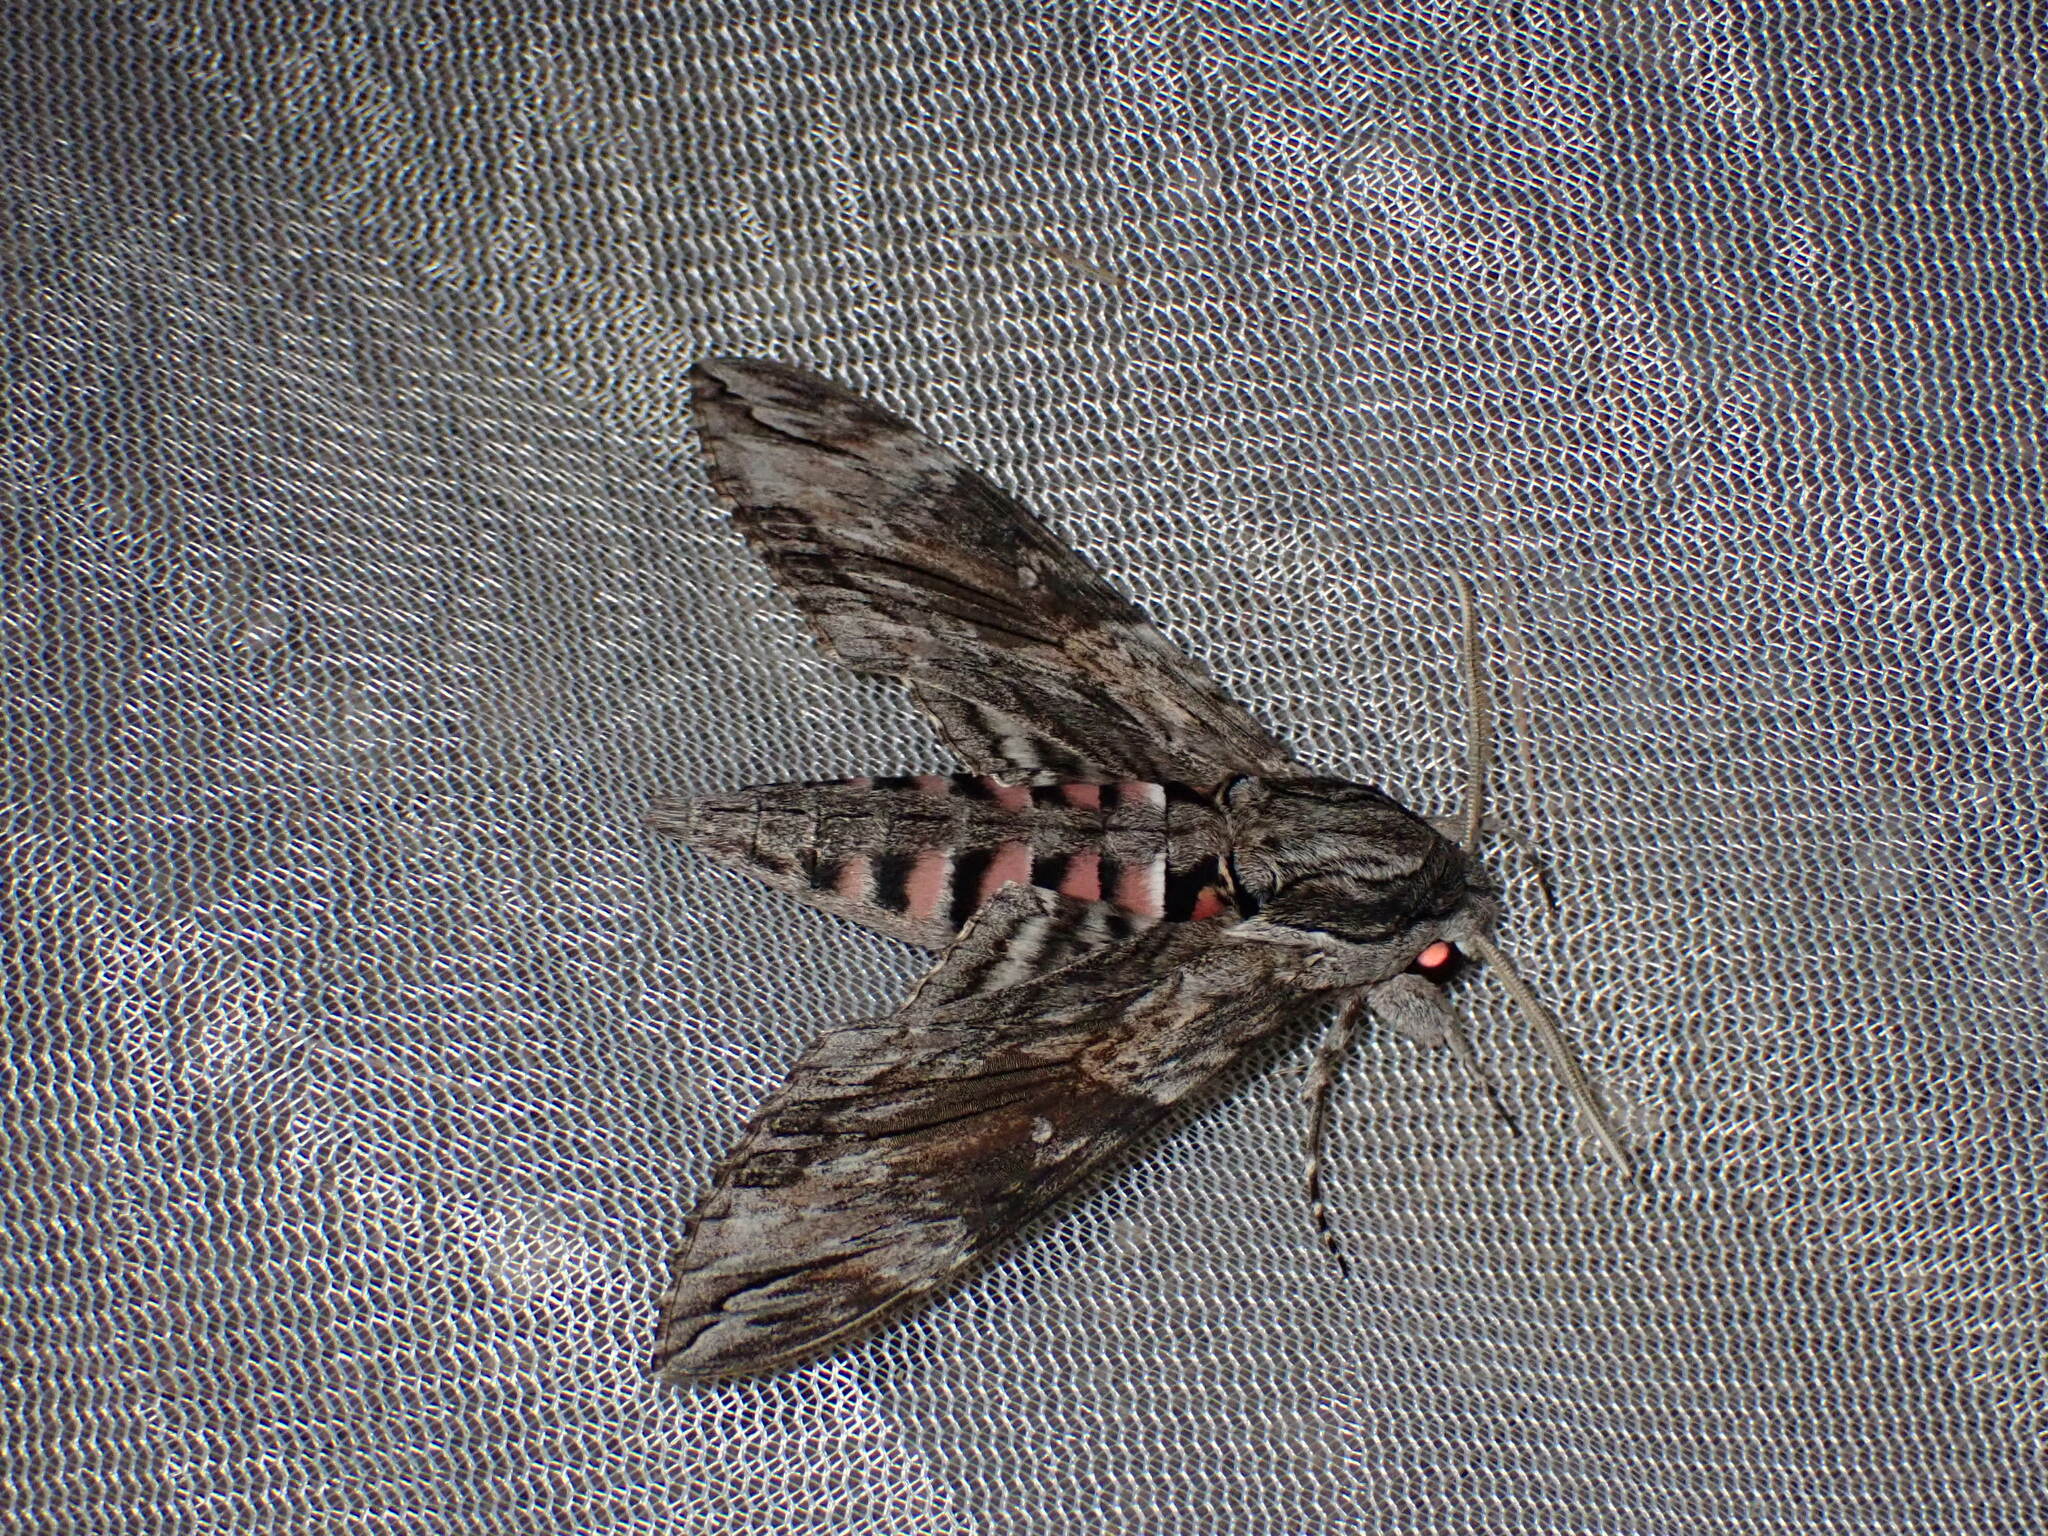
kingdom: Animalia
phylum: Arthropoda
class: Insecta
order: Lepidoptera
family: Sphingidae
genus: Agrius
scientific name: Agrius convolvuli
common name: Convolvulus hawkmoth
